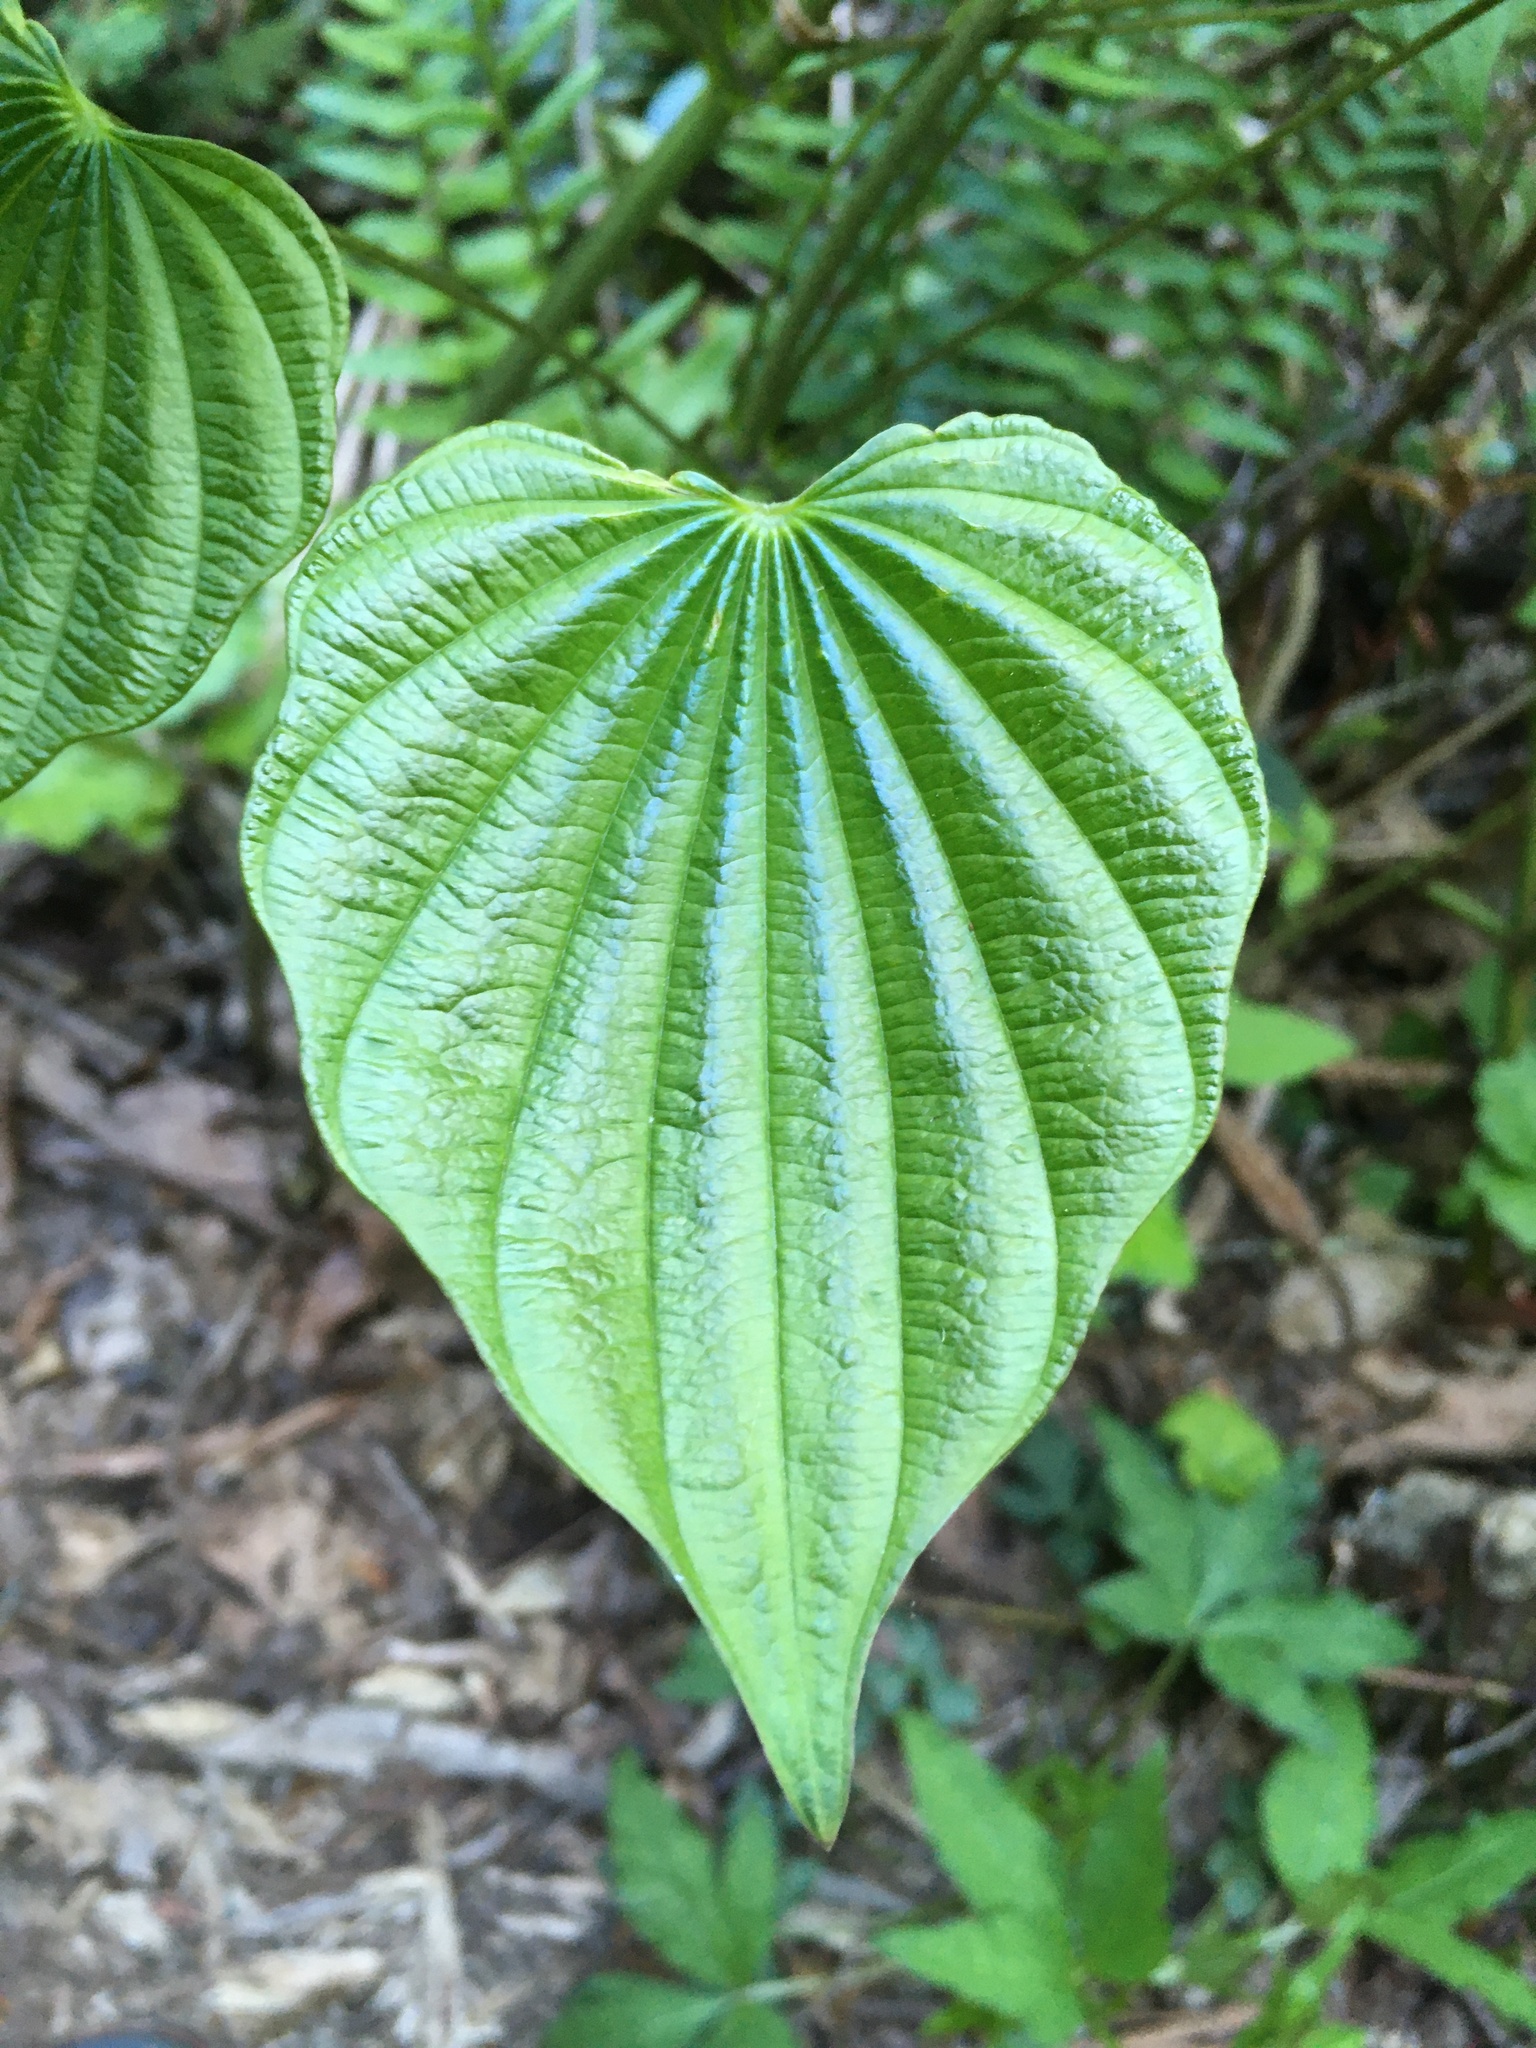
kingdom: Plantae
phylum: Tracheophyta
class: Liliopsida
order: Dioscoreales
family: Dioscoreaceae
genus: Dioscorea
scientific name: Dioscorea villosa
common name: Wild yam
